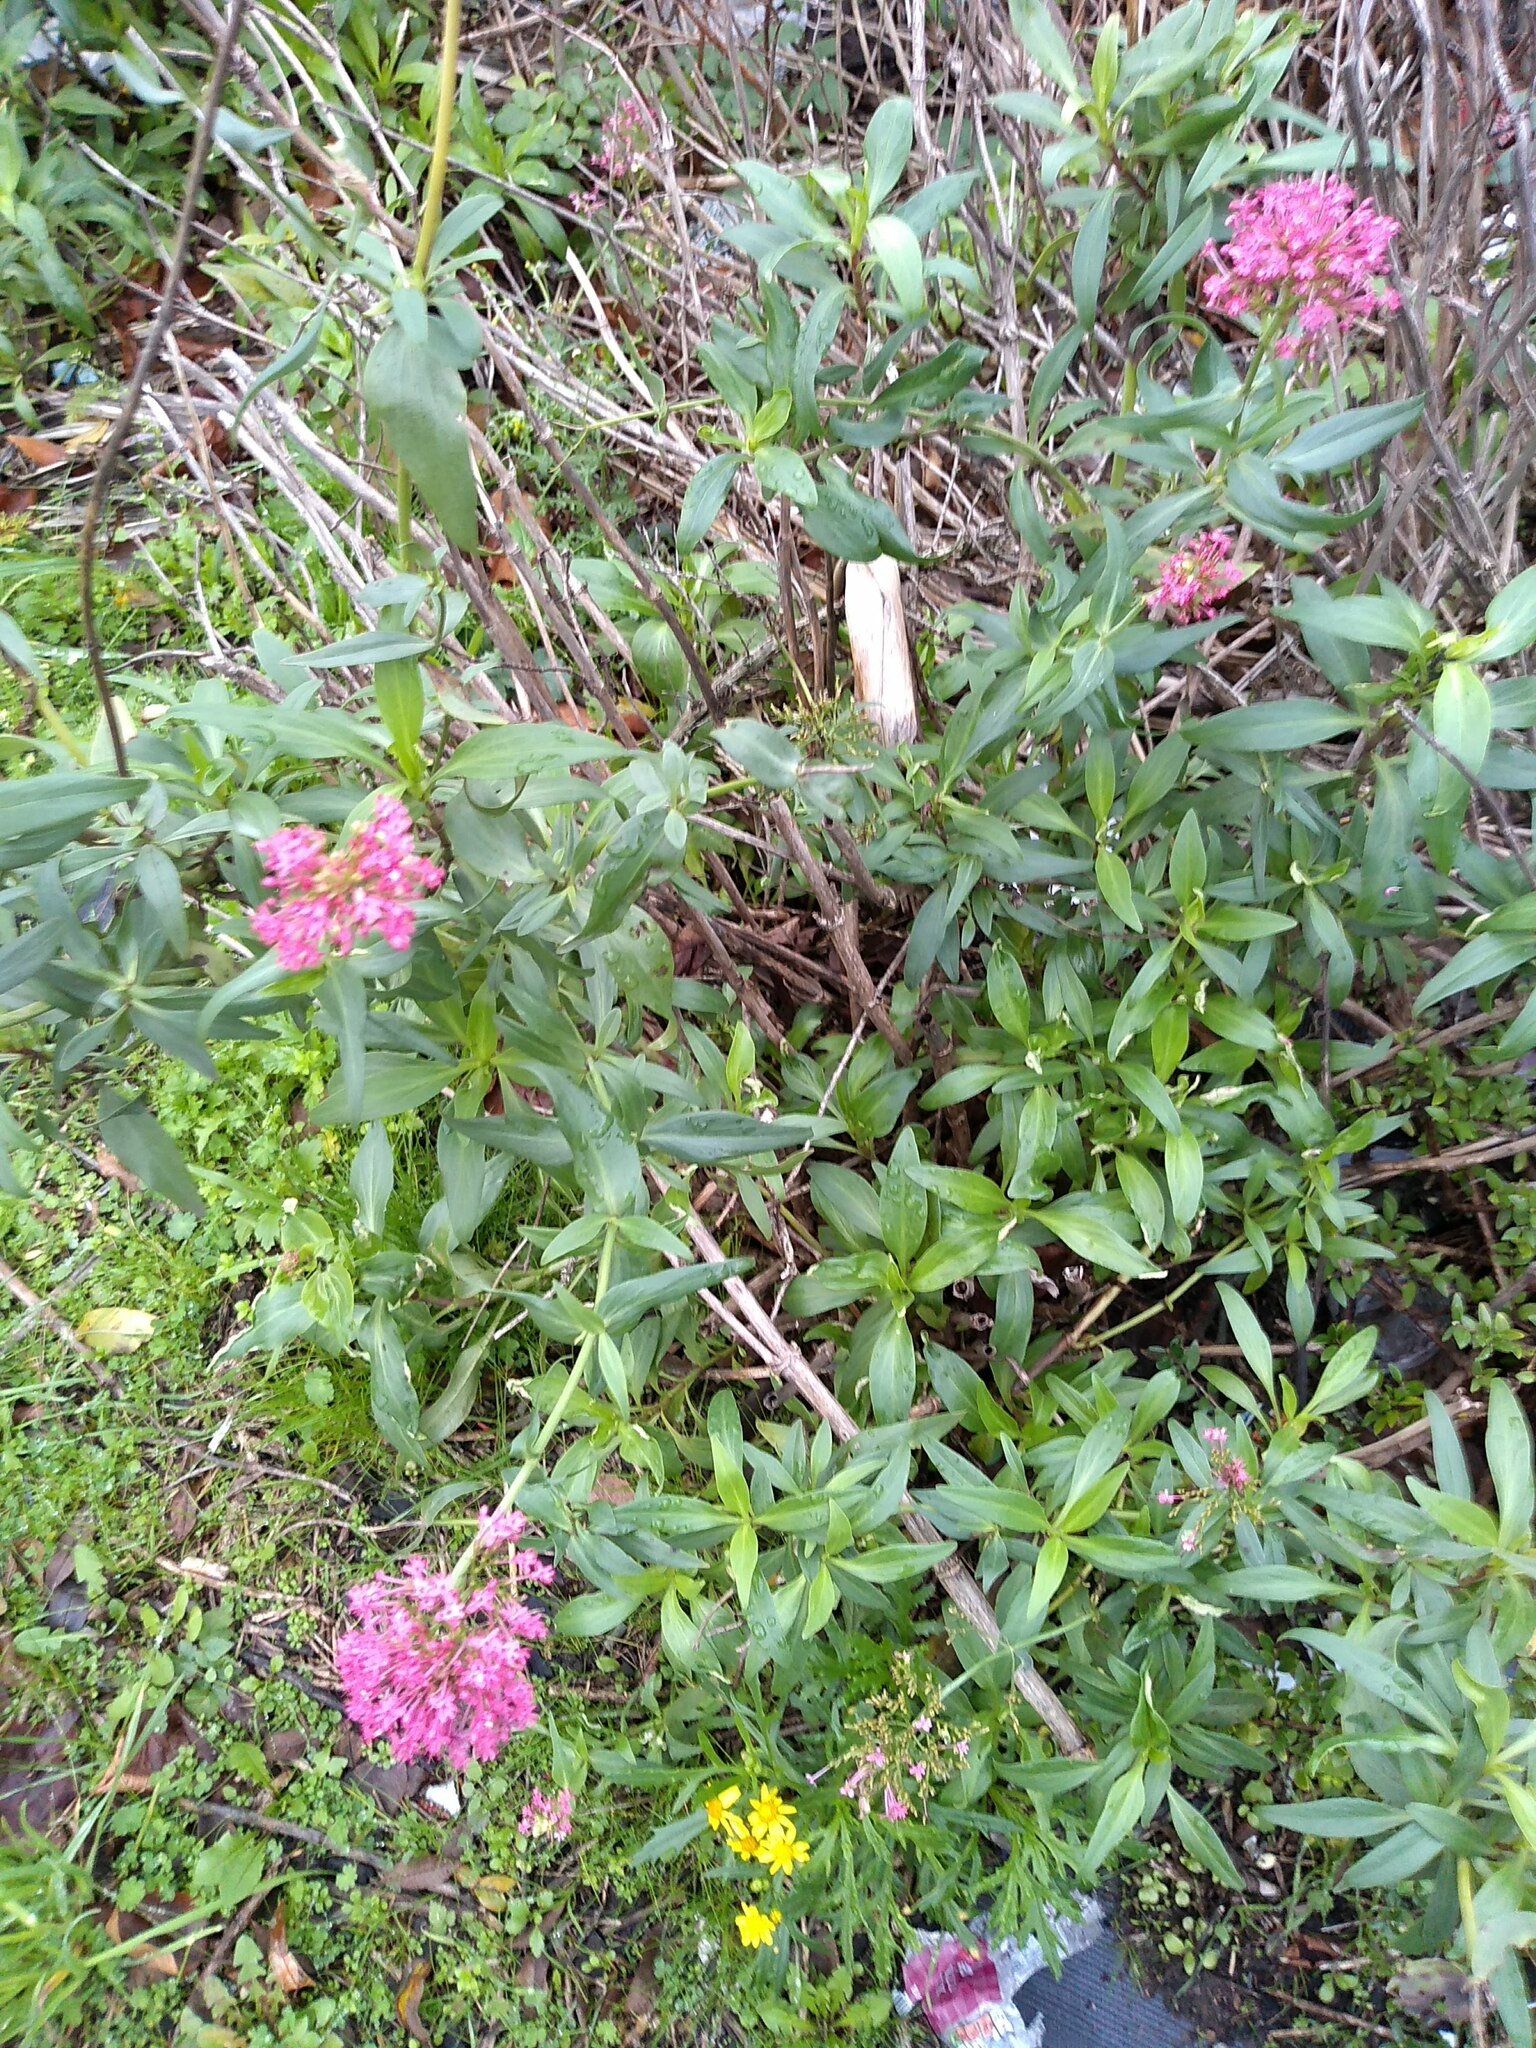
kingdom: Plantae
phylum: Tracheophyta
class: Magnoliopsida
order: Dipsacales
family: Caprifoliaceae
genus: Centranthus
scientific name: Centranthus ruber
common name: Red valerian
